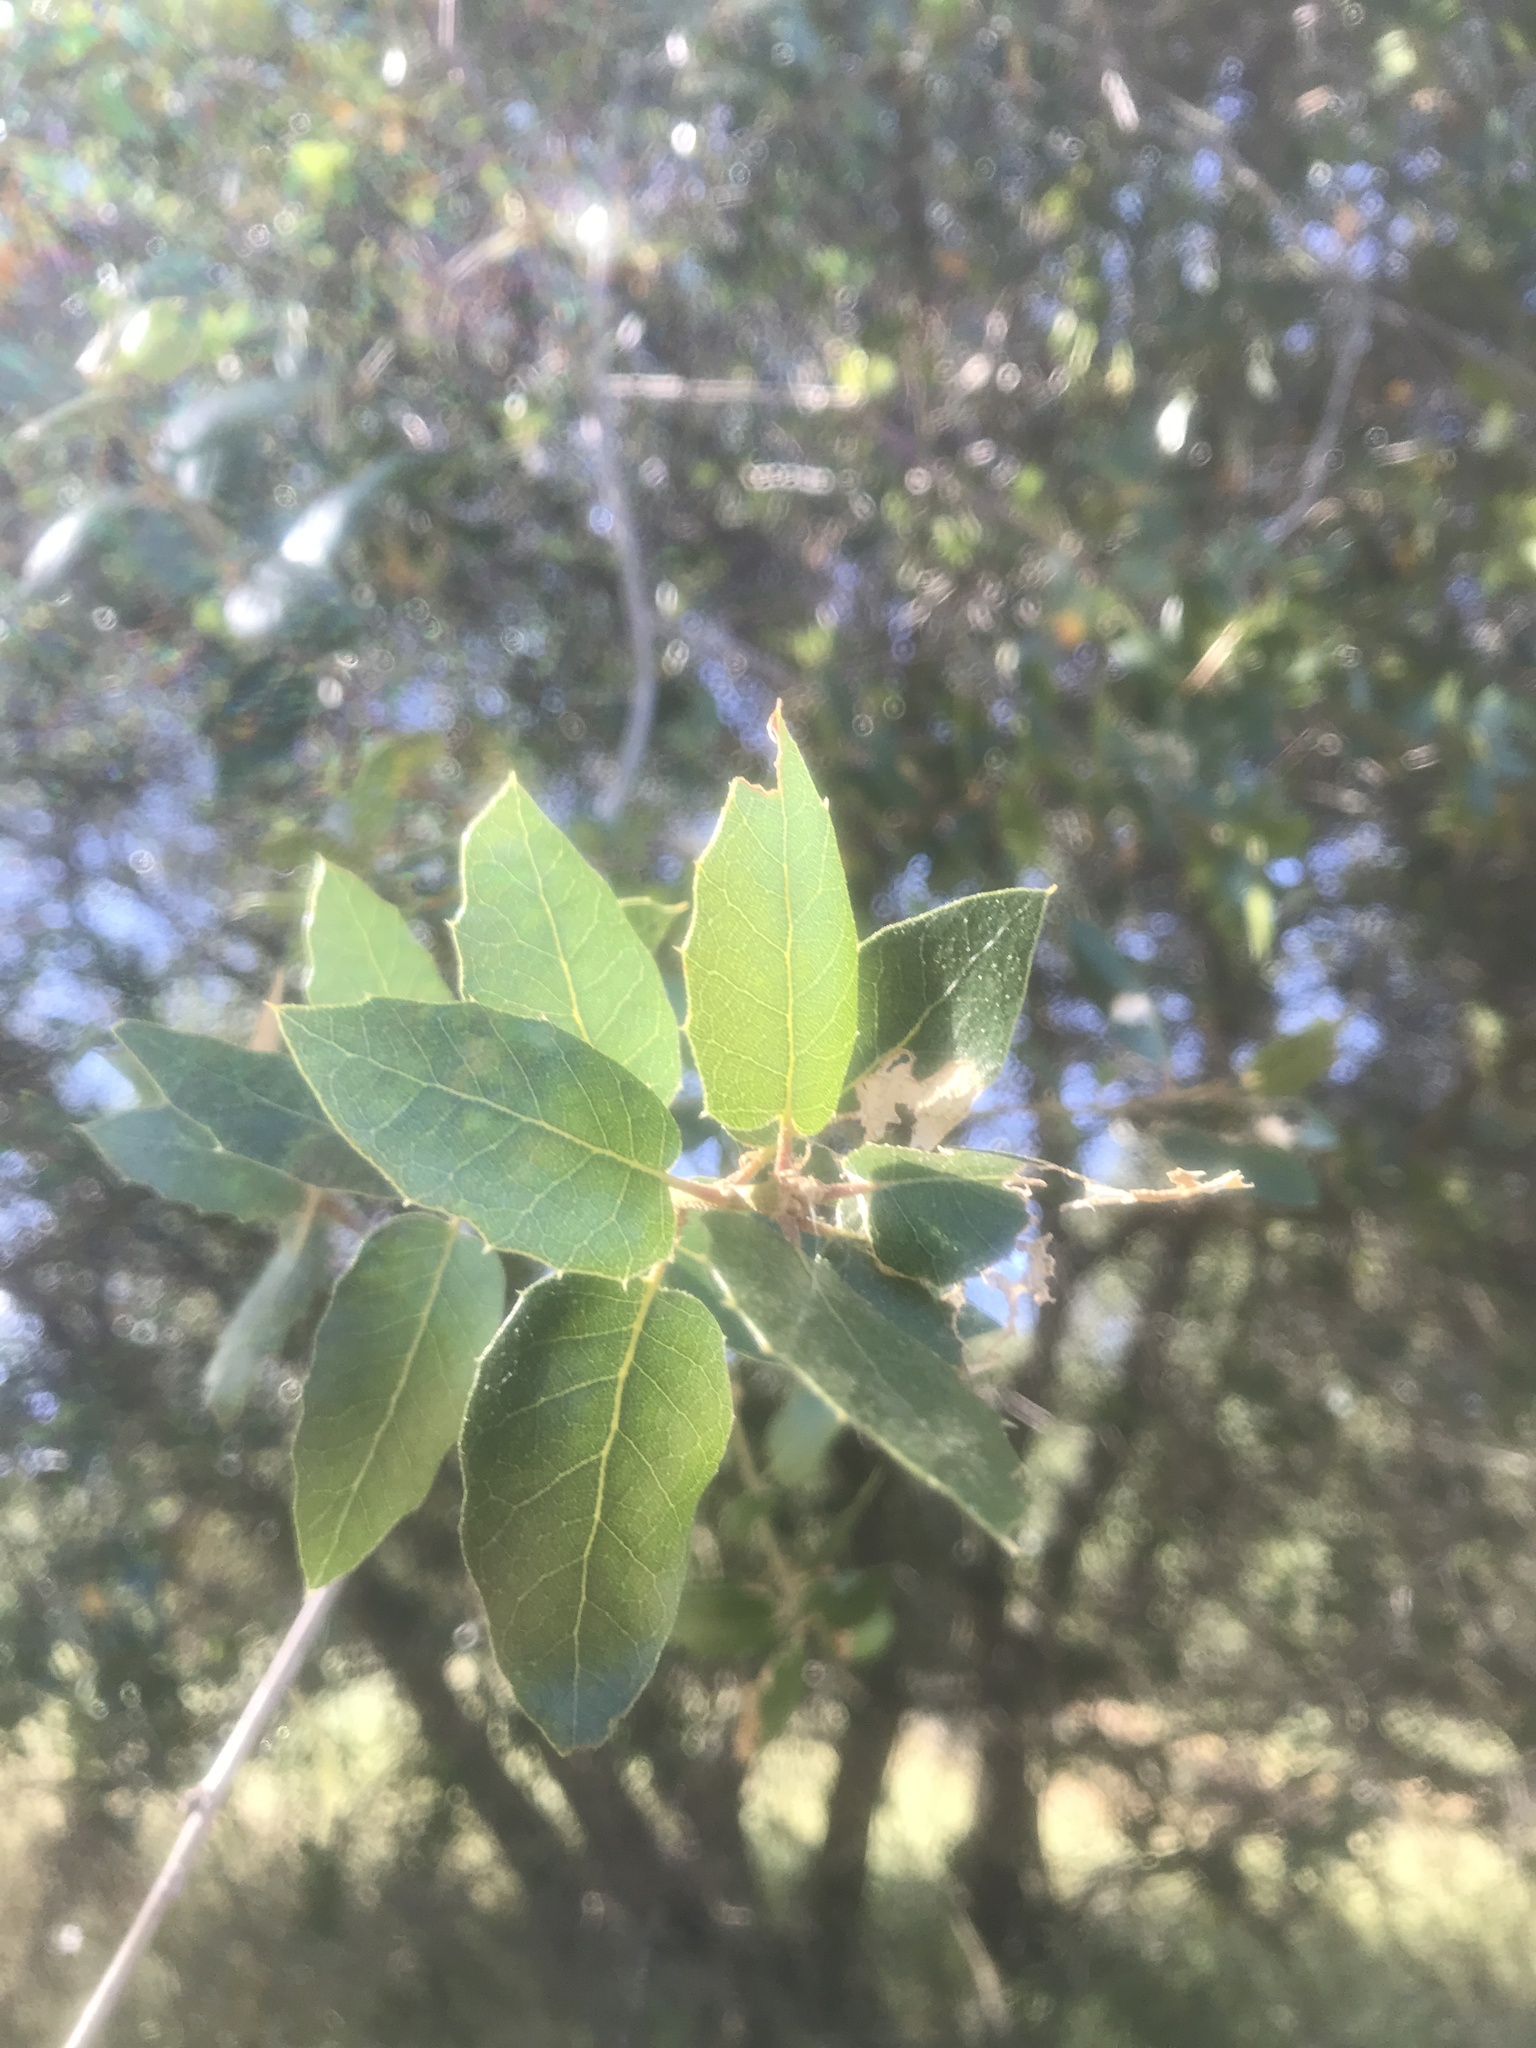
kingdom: Plantae
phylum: Tracheophyta
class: Magnoliopsida
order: Fagales
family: Fagaceae
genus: Quercus
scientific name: Quercus wislizeni
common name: Interior live oak
